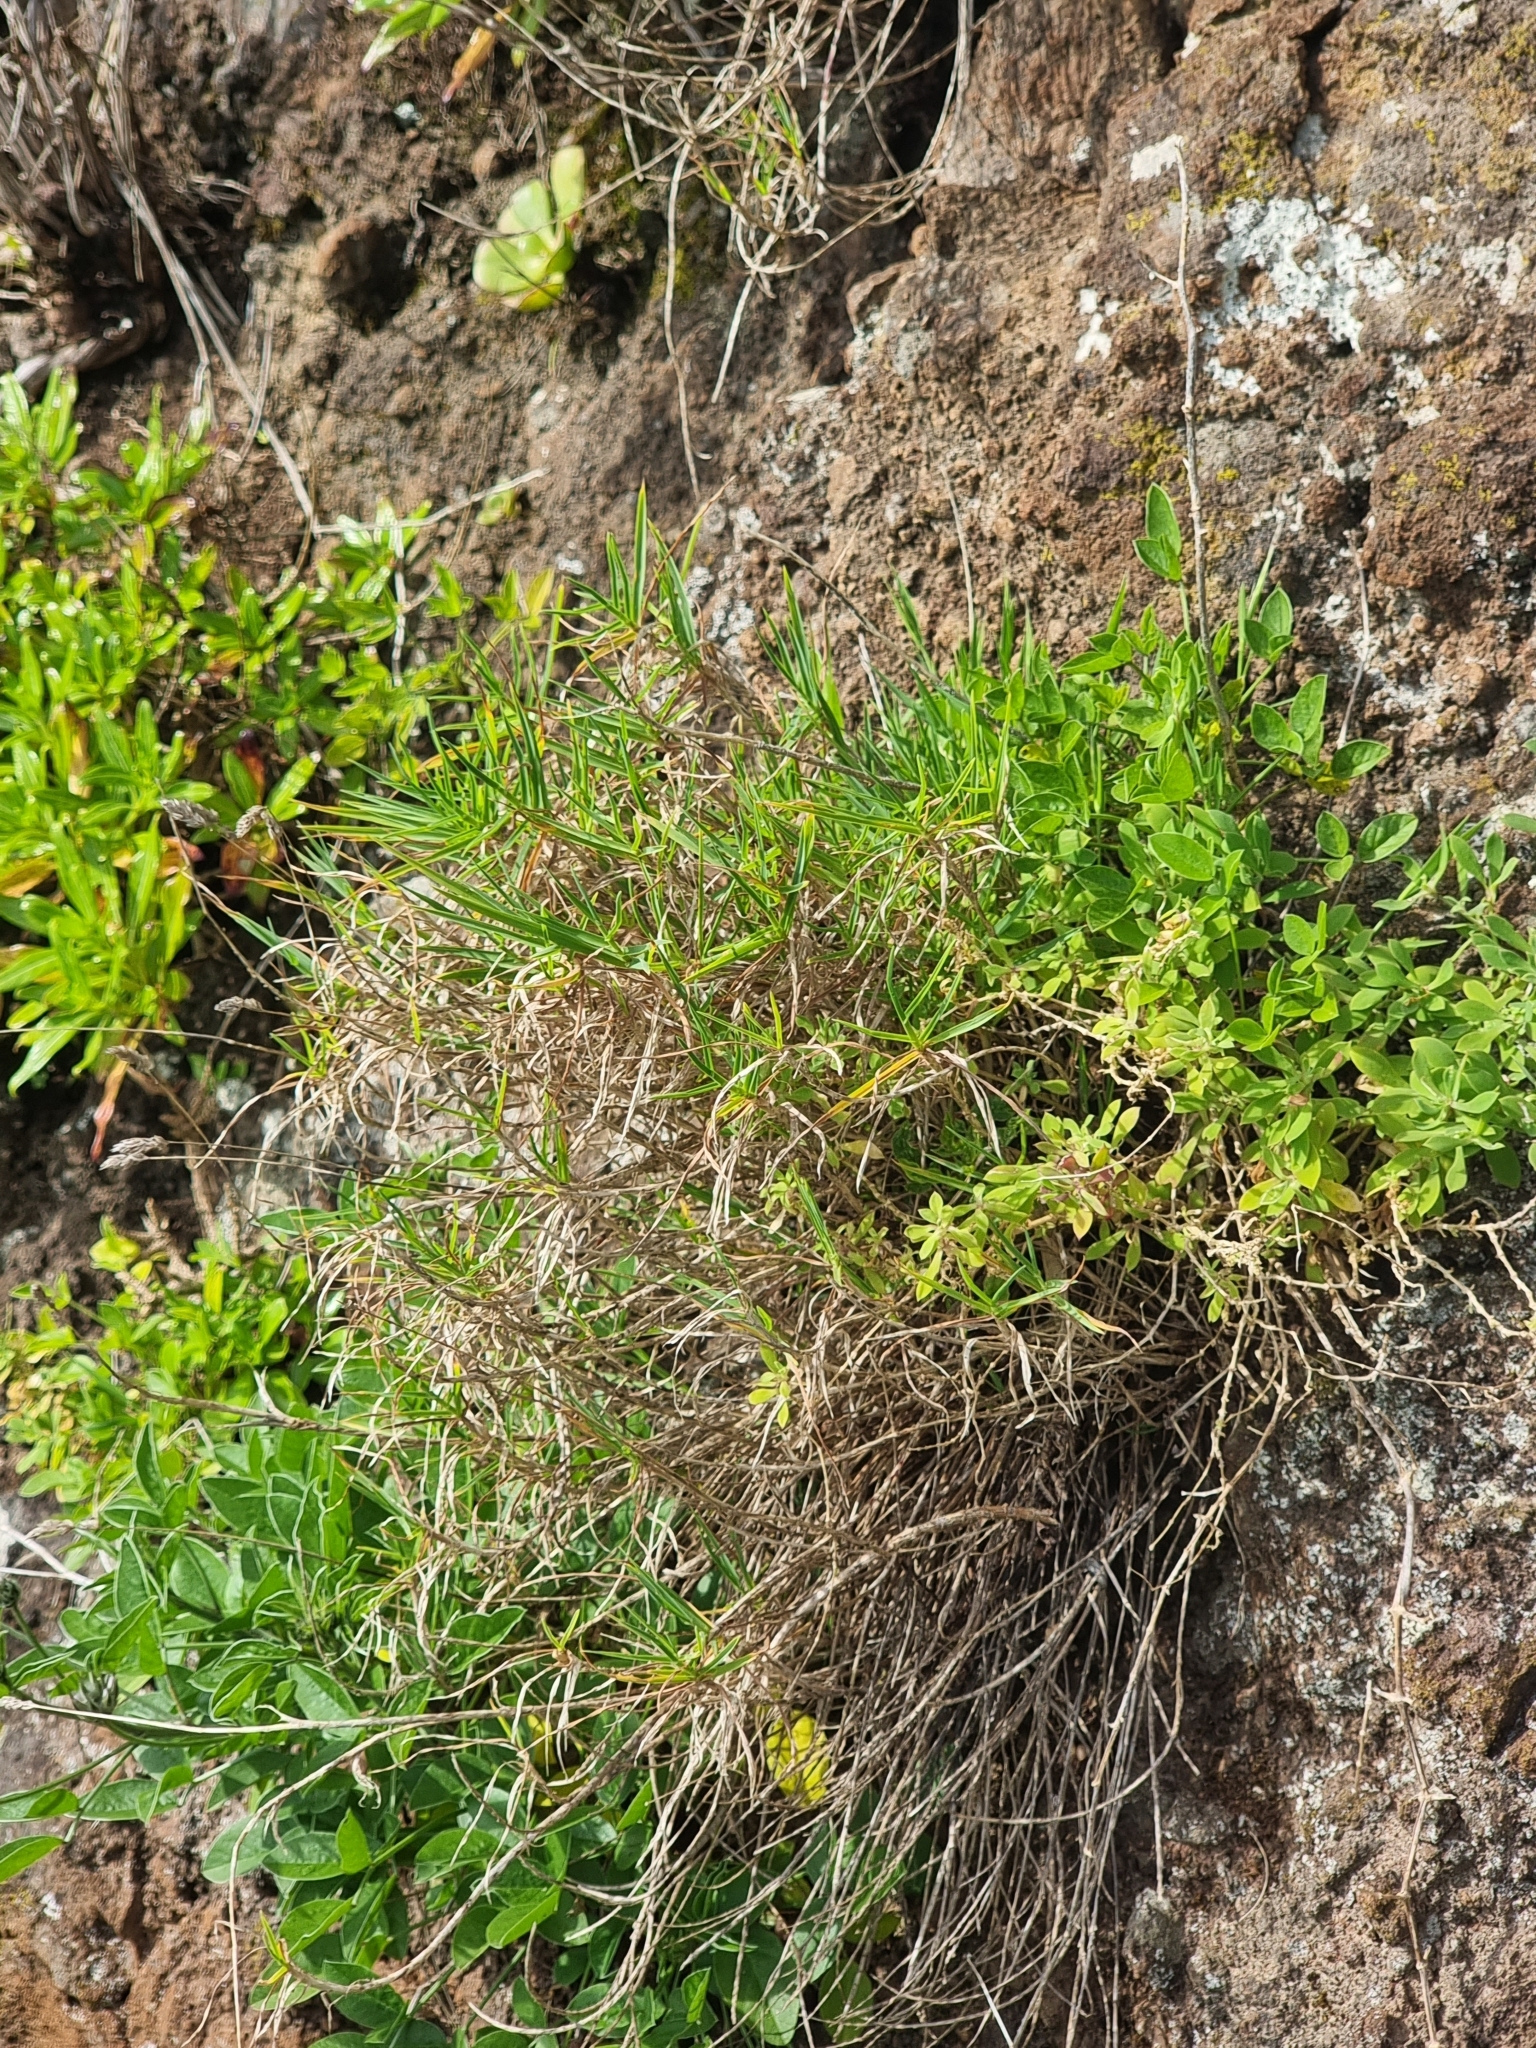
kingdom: Plantae
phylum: Tracheophyta
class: Liliopsida
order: Poales
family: Poaceae
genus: Dactylis
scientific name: Dactylis smithii
